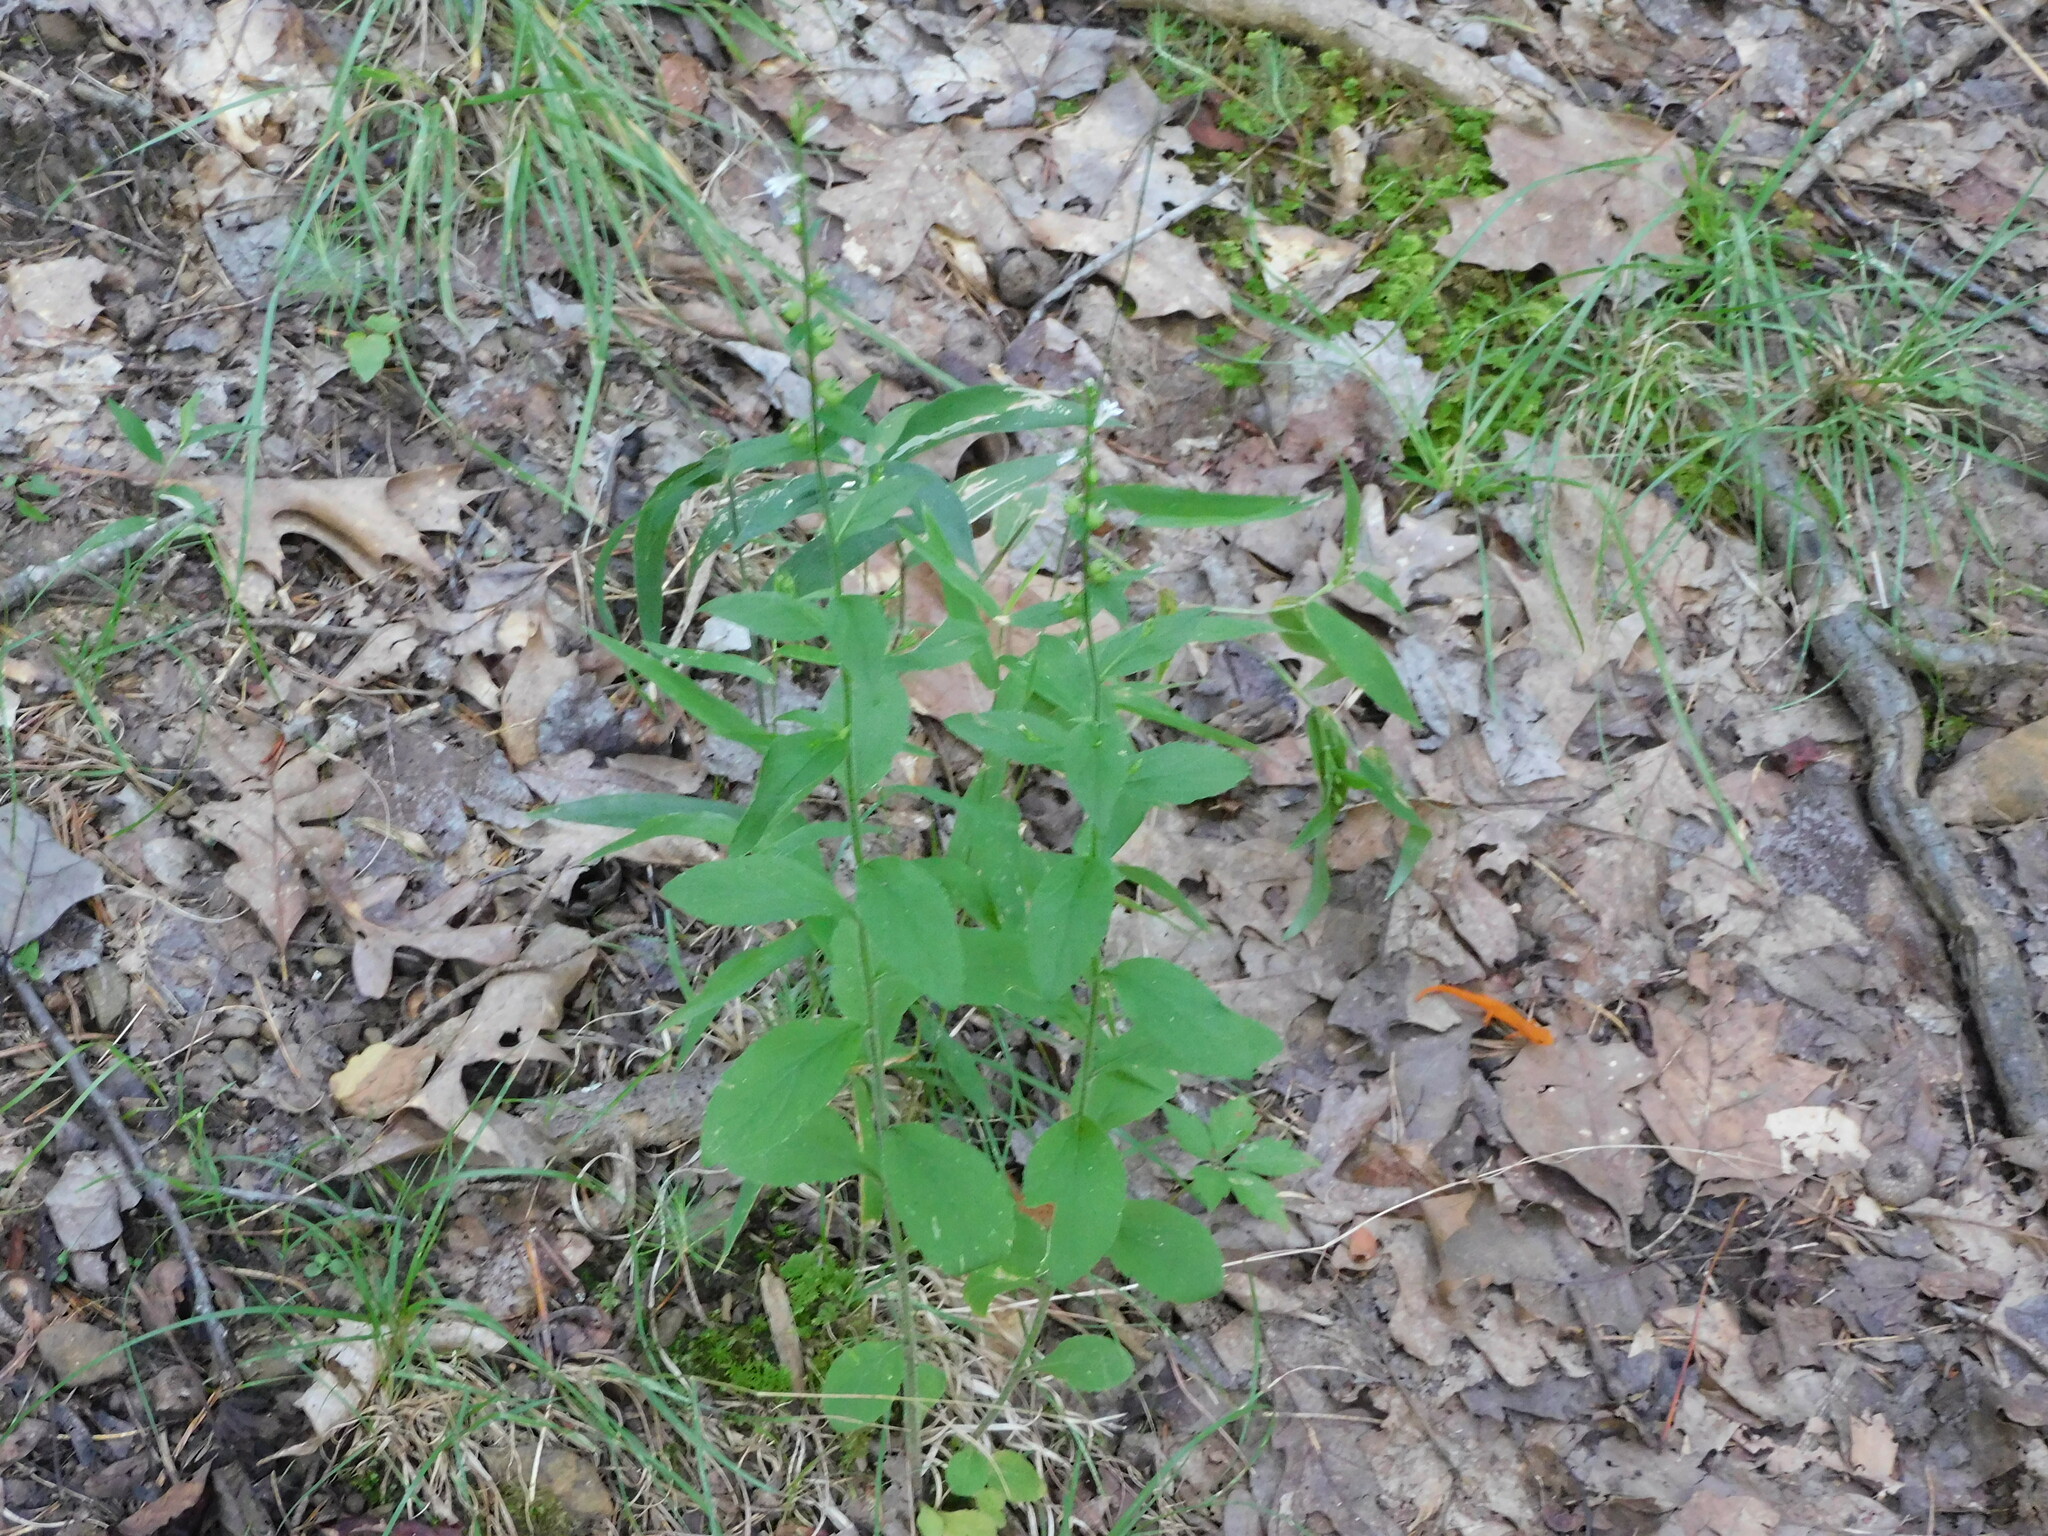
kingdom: Animalia
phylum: Chordata
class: Amphibia
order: Caudata
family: Salamandridae
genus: Notophthalmus
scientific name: Notophthalmus viridescens
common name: Eastern newt
